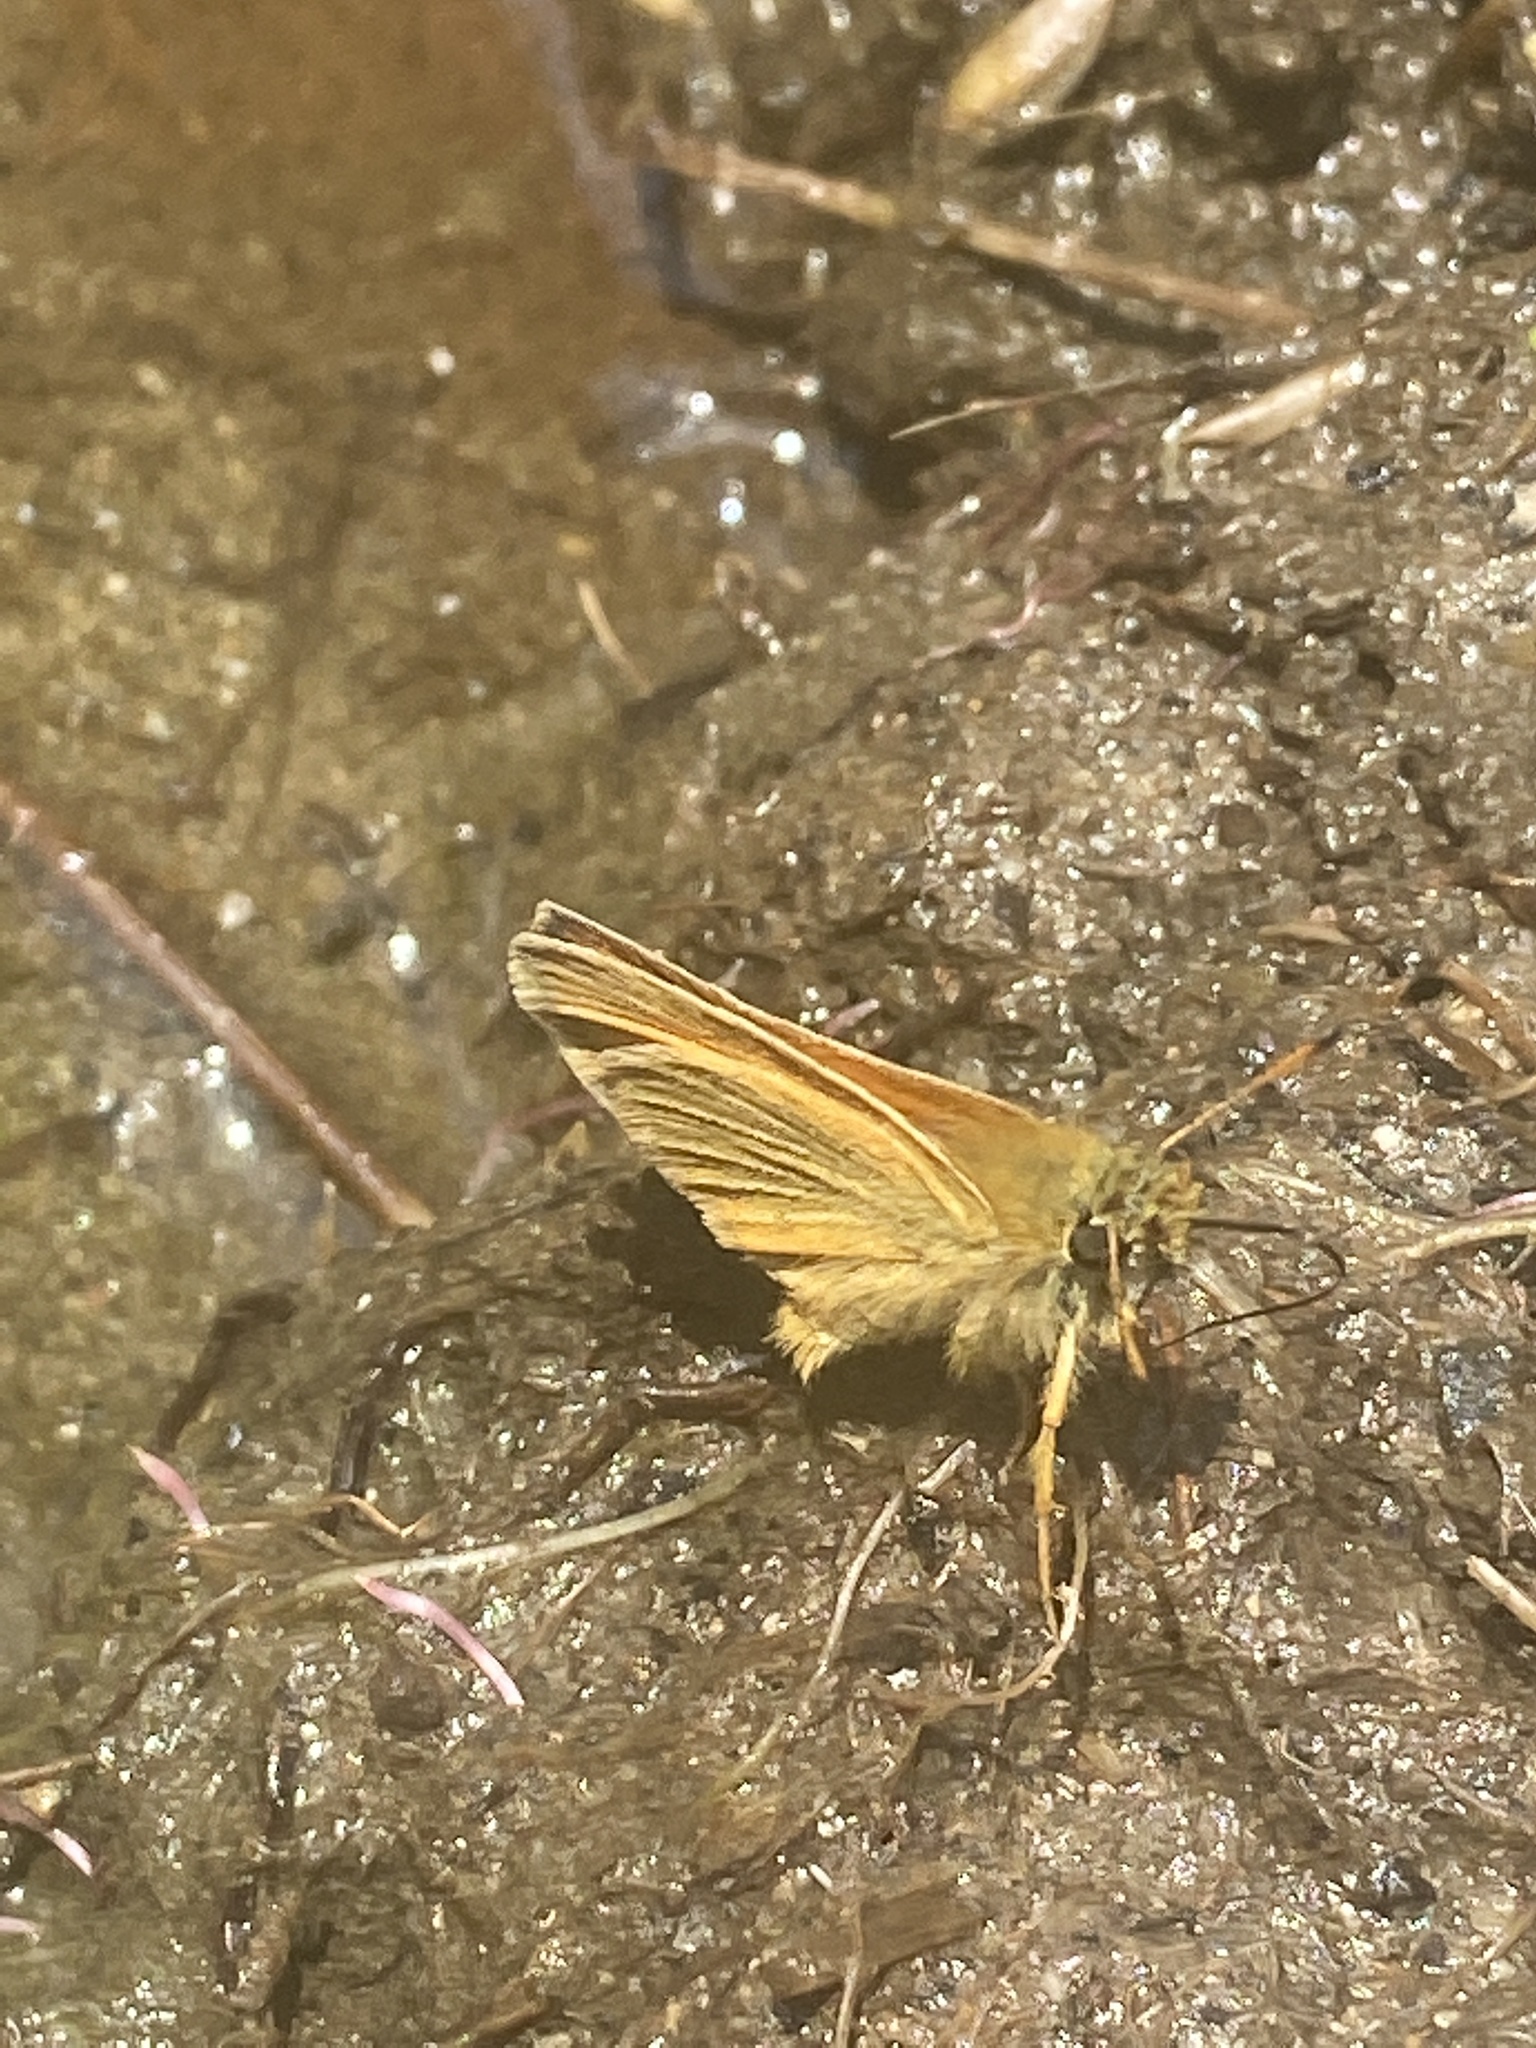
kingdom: Animalia
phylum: Arthropoda
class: Insecta
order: Lepidoptera
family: Hesperiidae
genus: Thymelicus
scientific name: Thymelicus lineola
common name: Essex skipper
